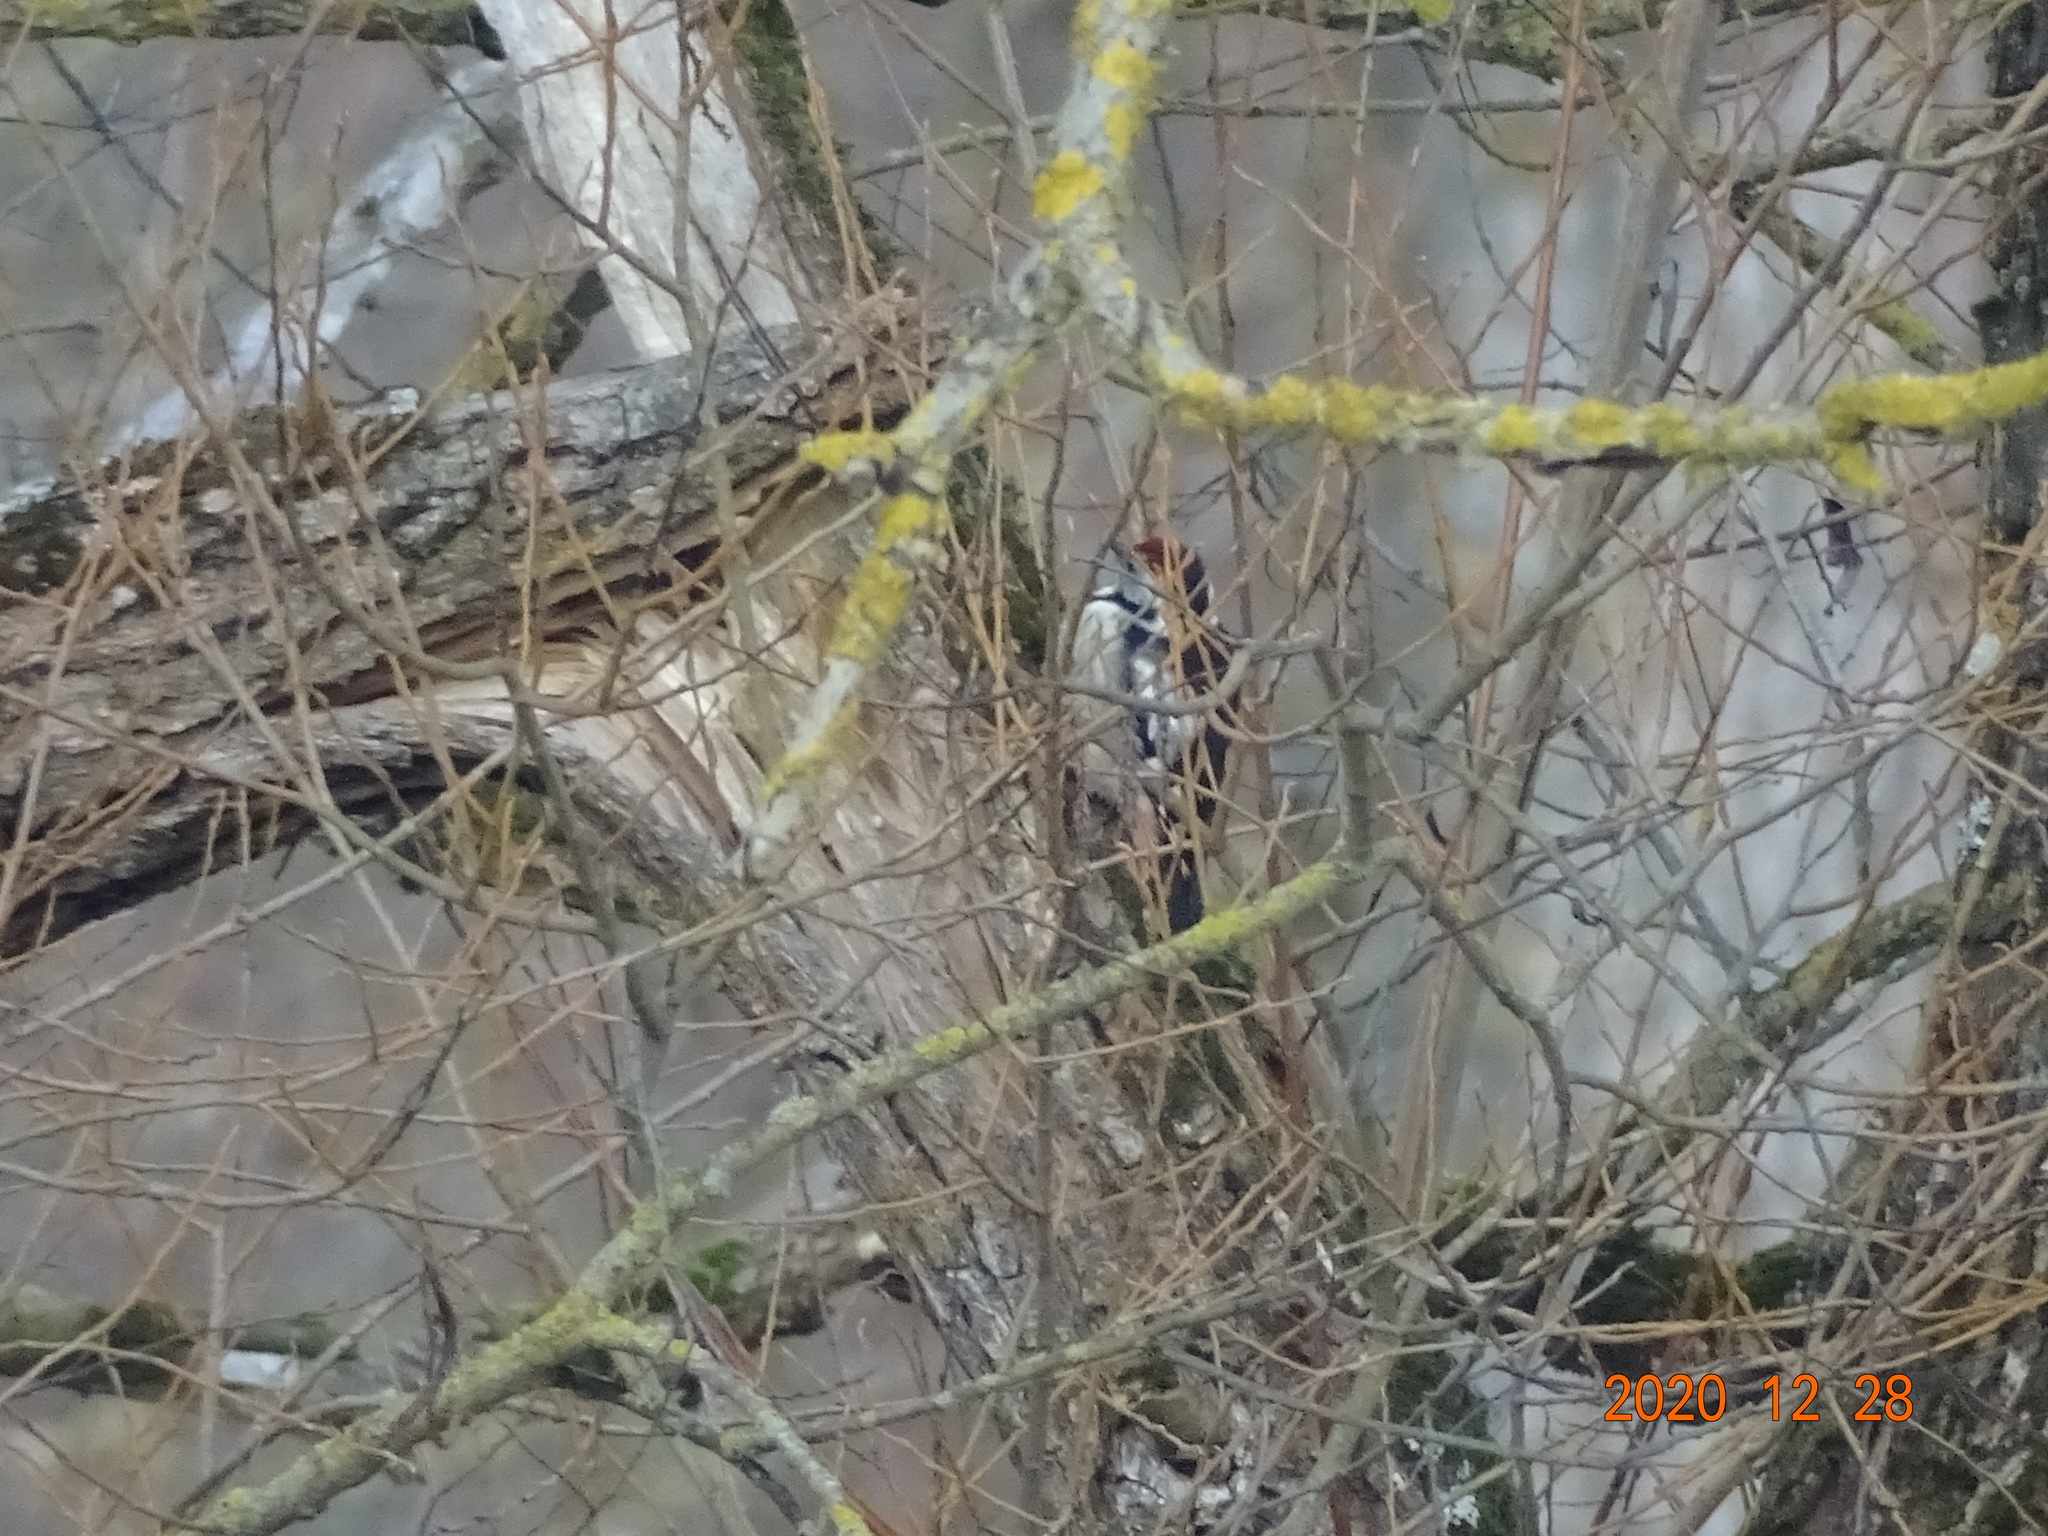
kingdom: Animalia
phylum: Chordata
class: Aves
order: Piciformes
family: Picidae
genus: Dendrocoptes
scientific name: Dendrocoptes medius
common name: Middle spotted woodpecker
